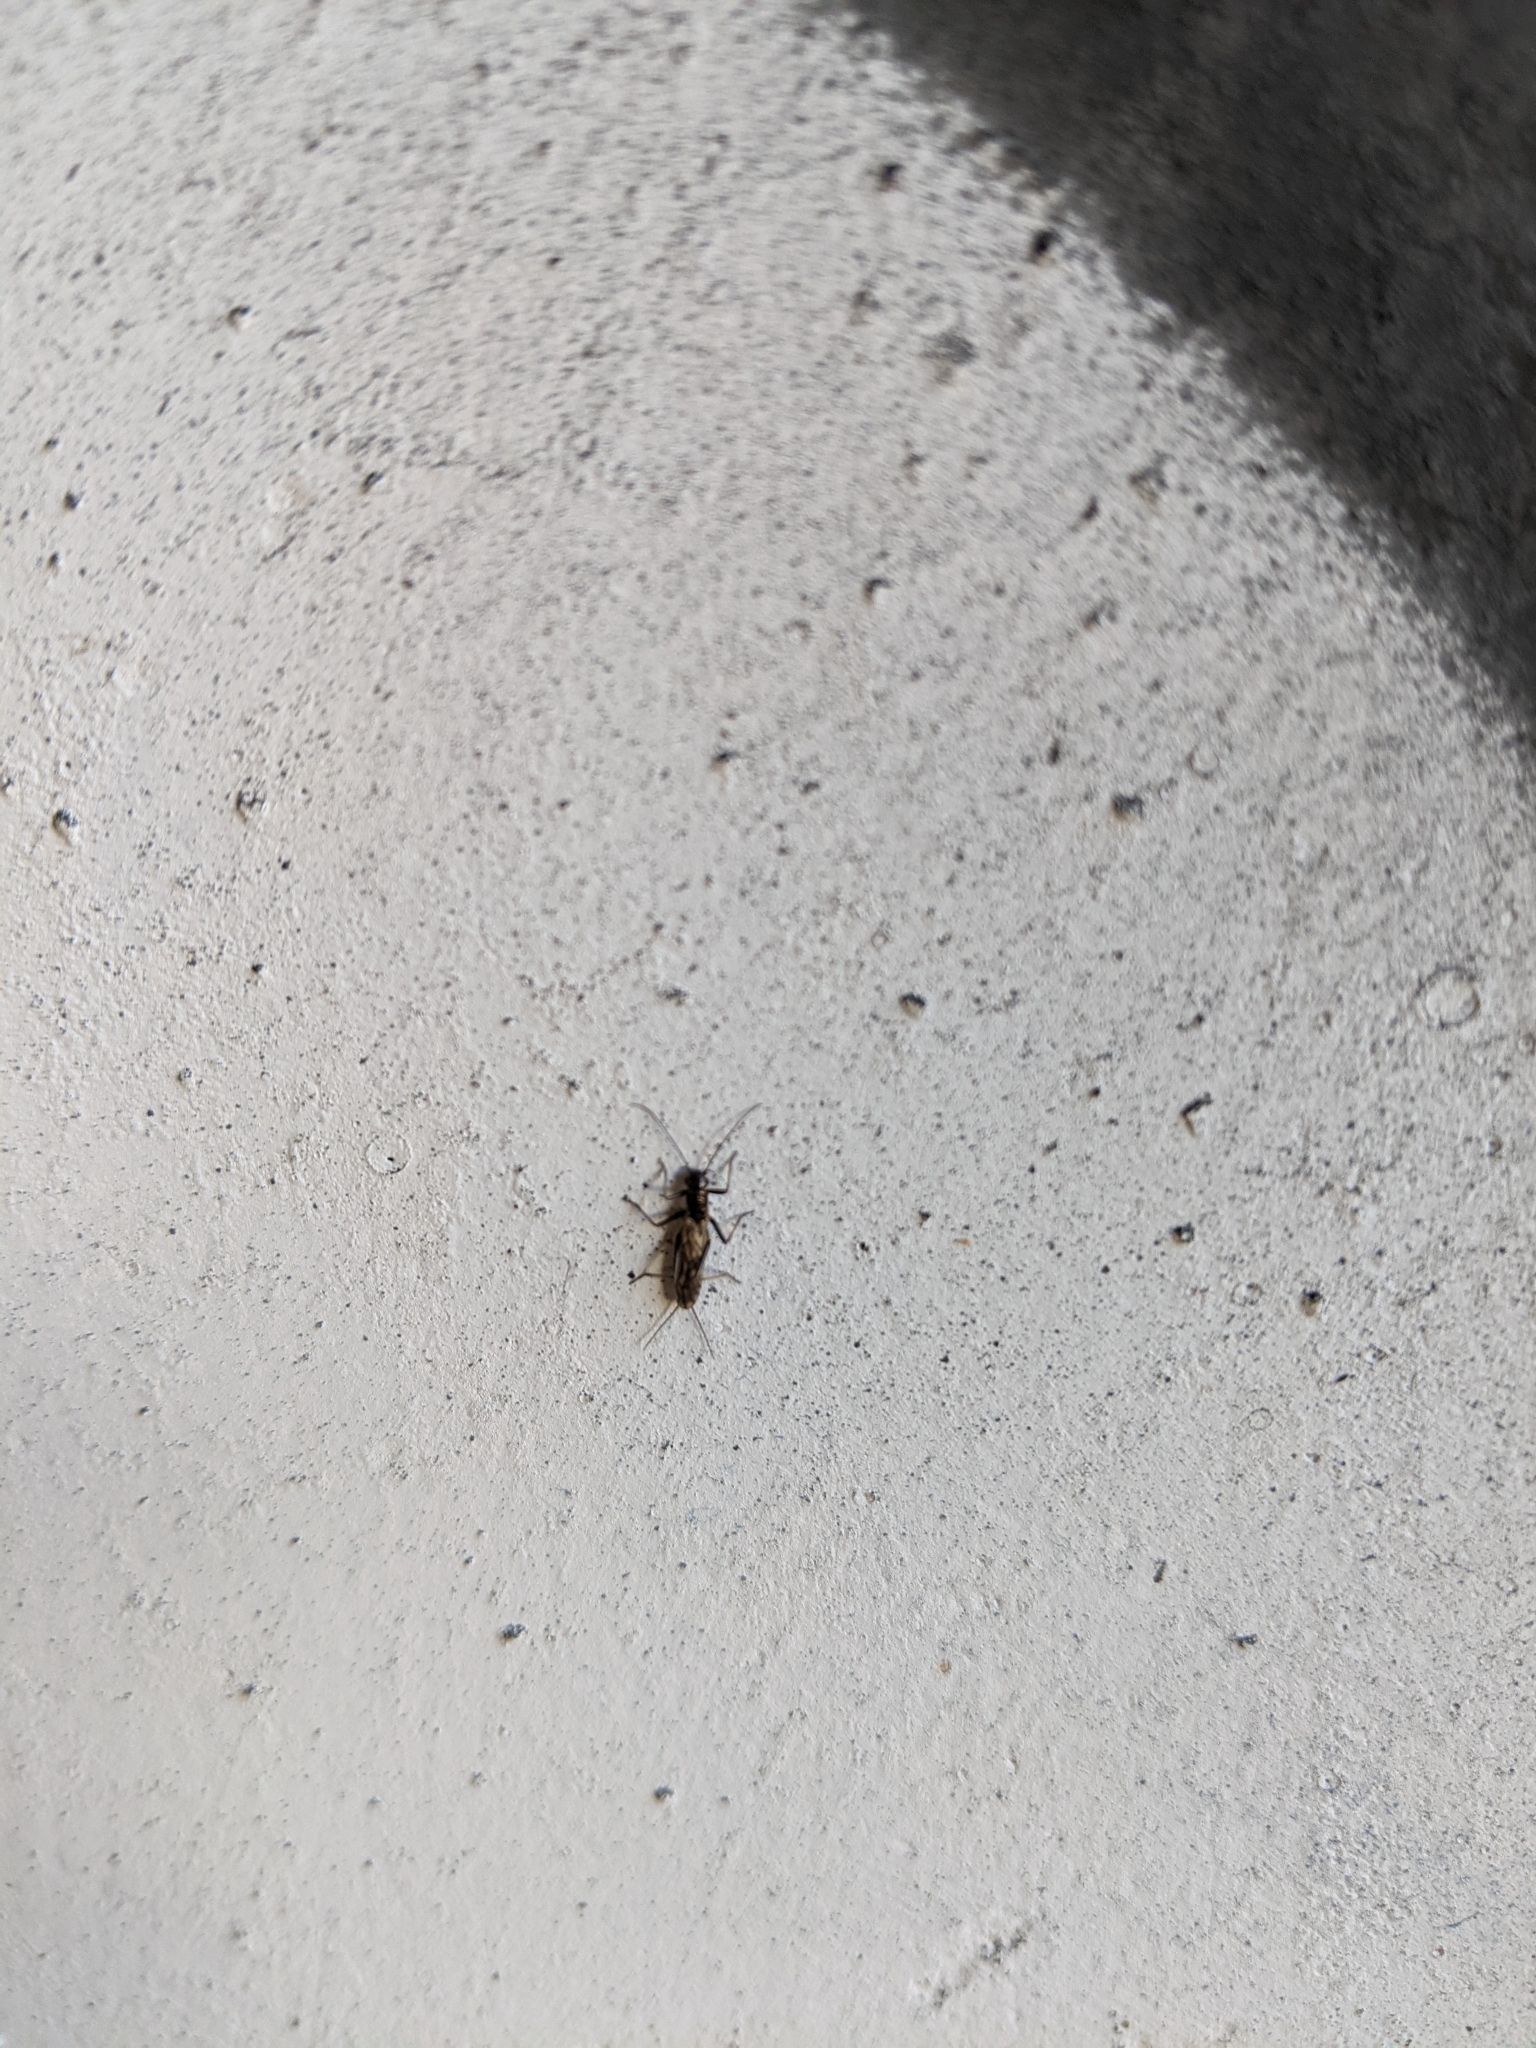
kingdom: Animalia
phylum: Arthropoda
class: Insecta
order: Plecoptera
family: Capniidae
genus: Allocapnia
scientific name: Allocapnia
